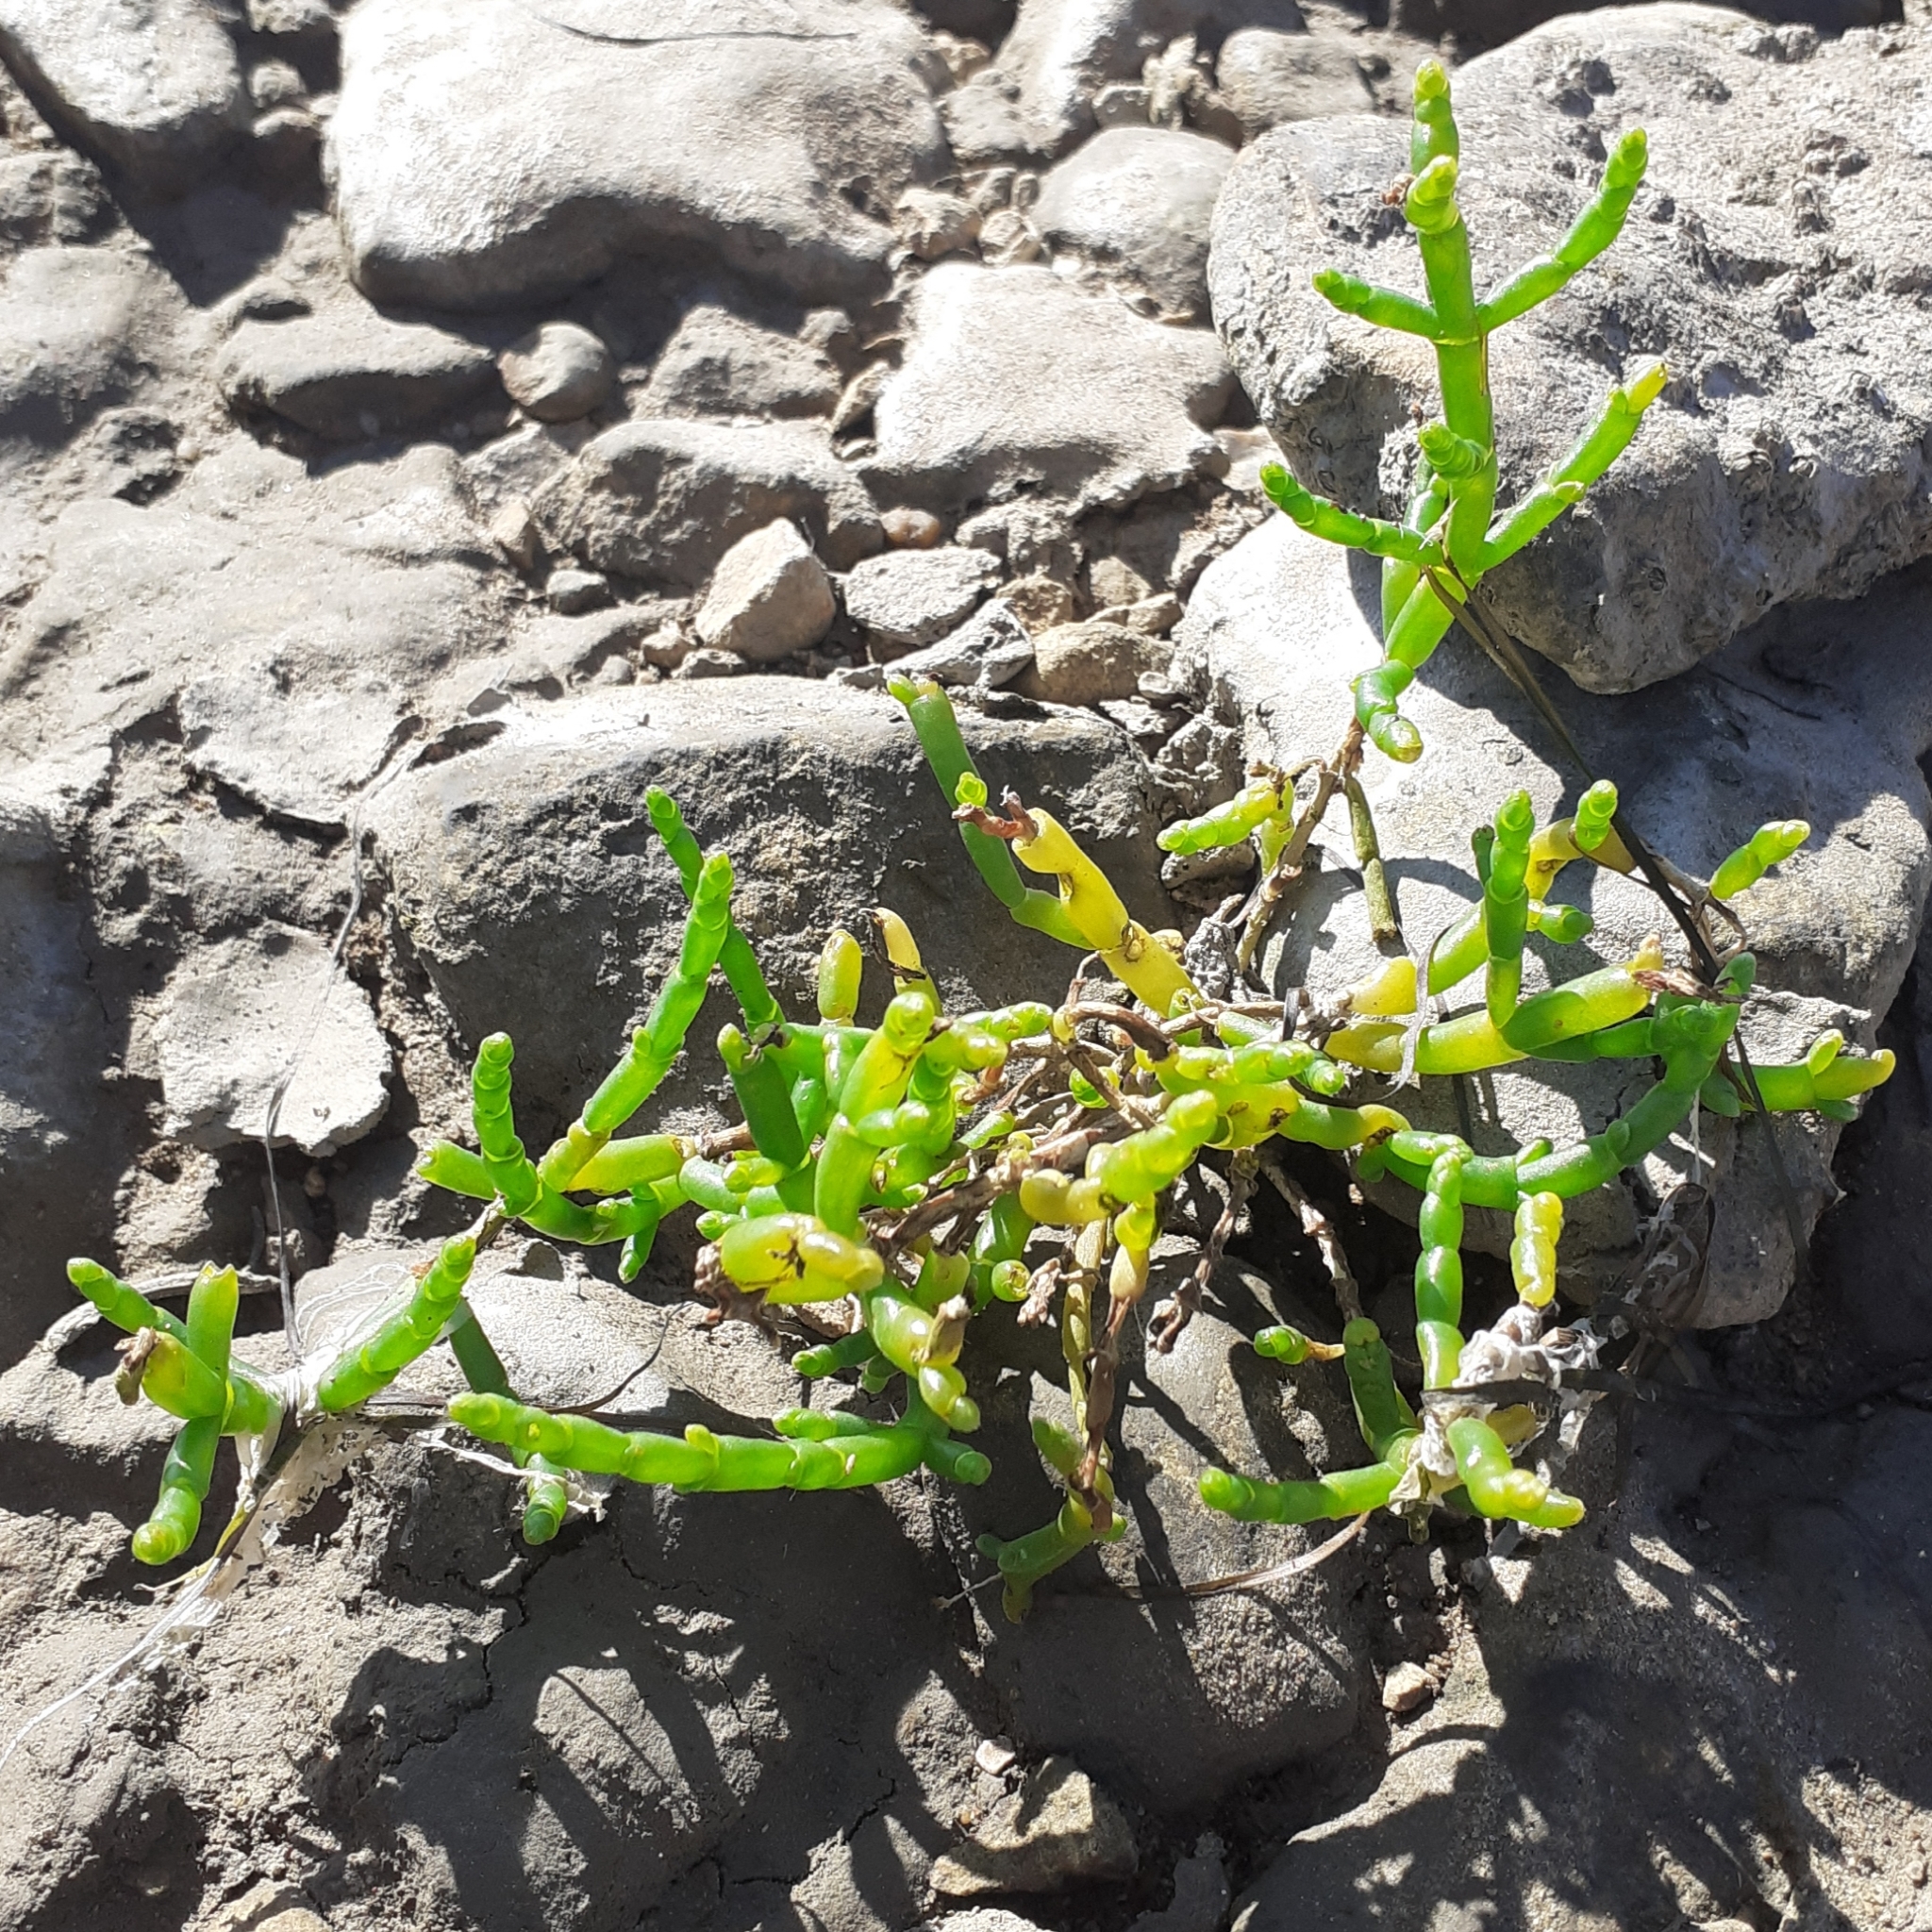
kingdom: Plantae
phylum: Tracheophyta
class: Magnoliopsida
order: Caryophyllales
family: Amaranthaceae
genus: Salicornia
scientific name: Salicornia europaea
